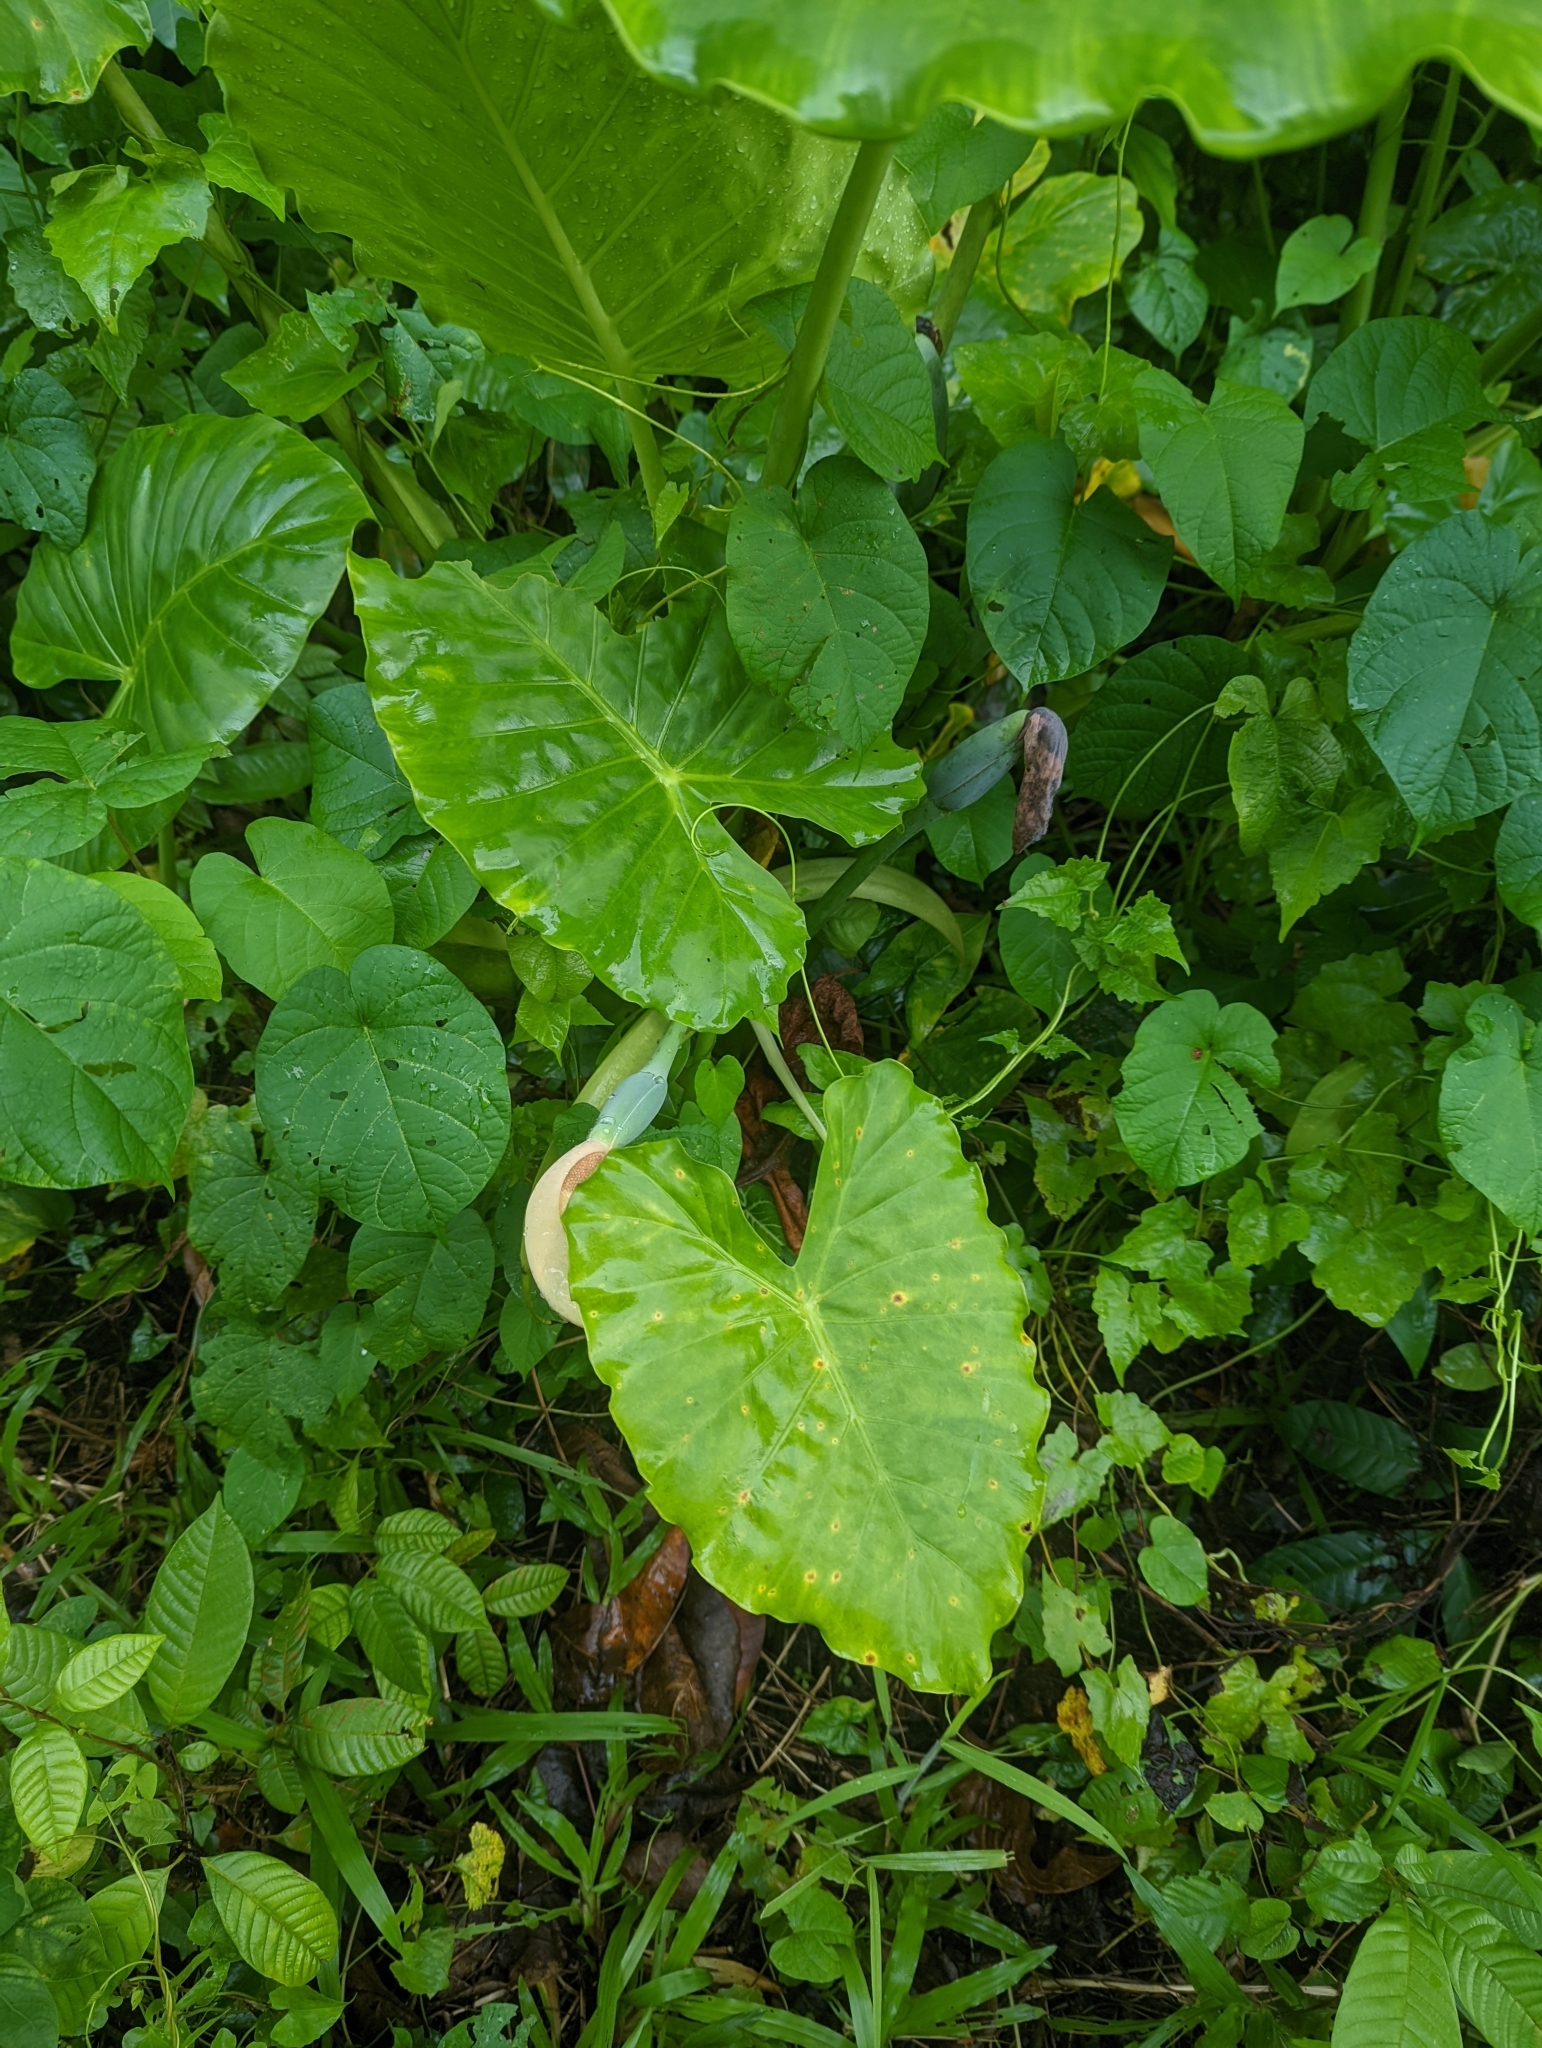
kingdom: Plantae
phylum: Tracheophyta
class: Liliopsida
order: Alismatales
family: Araceae
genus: Alocasia
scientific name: Alocasia macrorrhizos
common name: Giant taro
